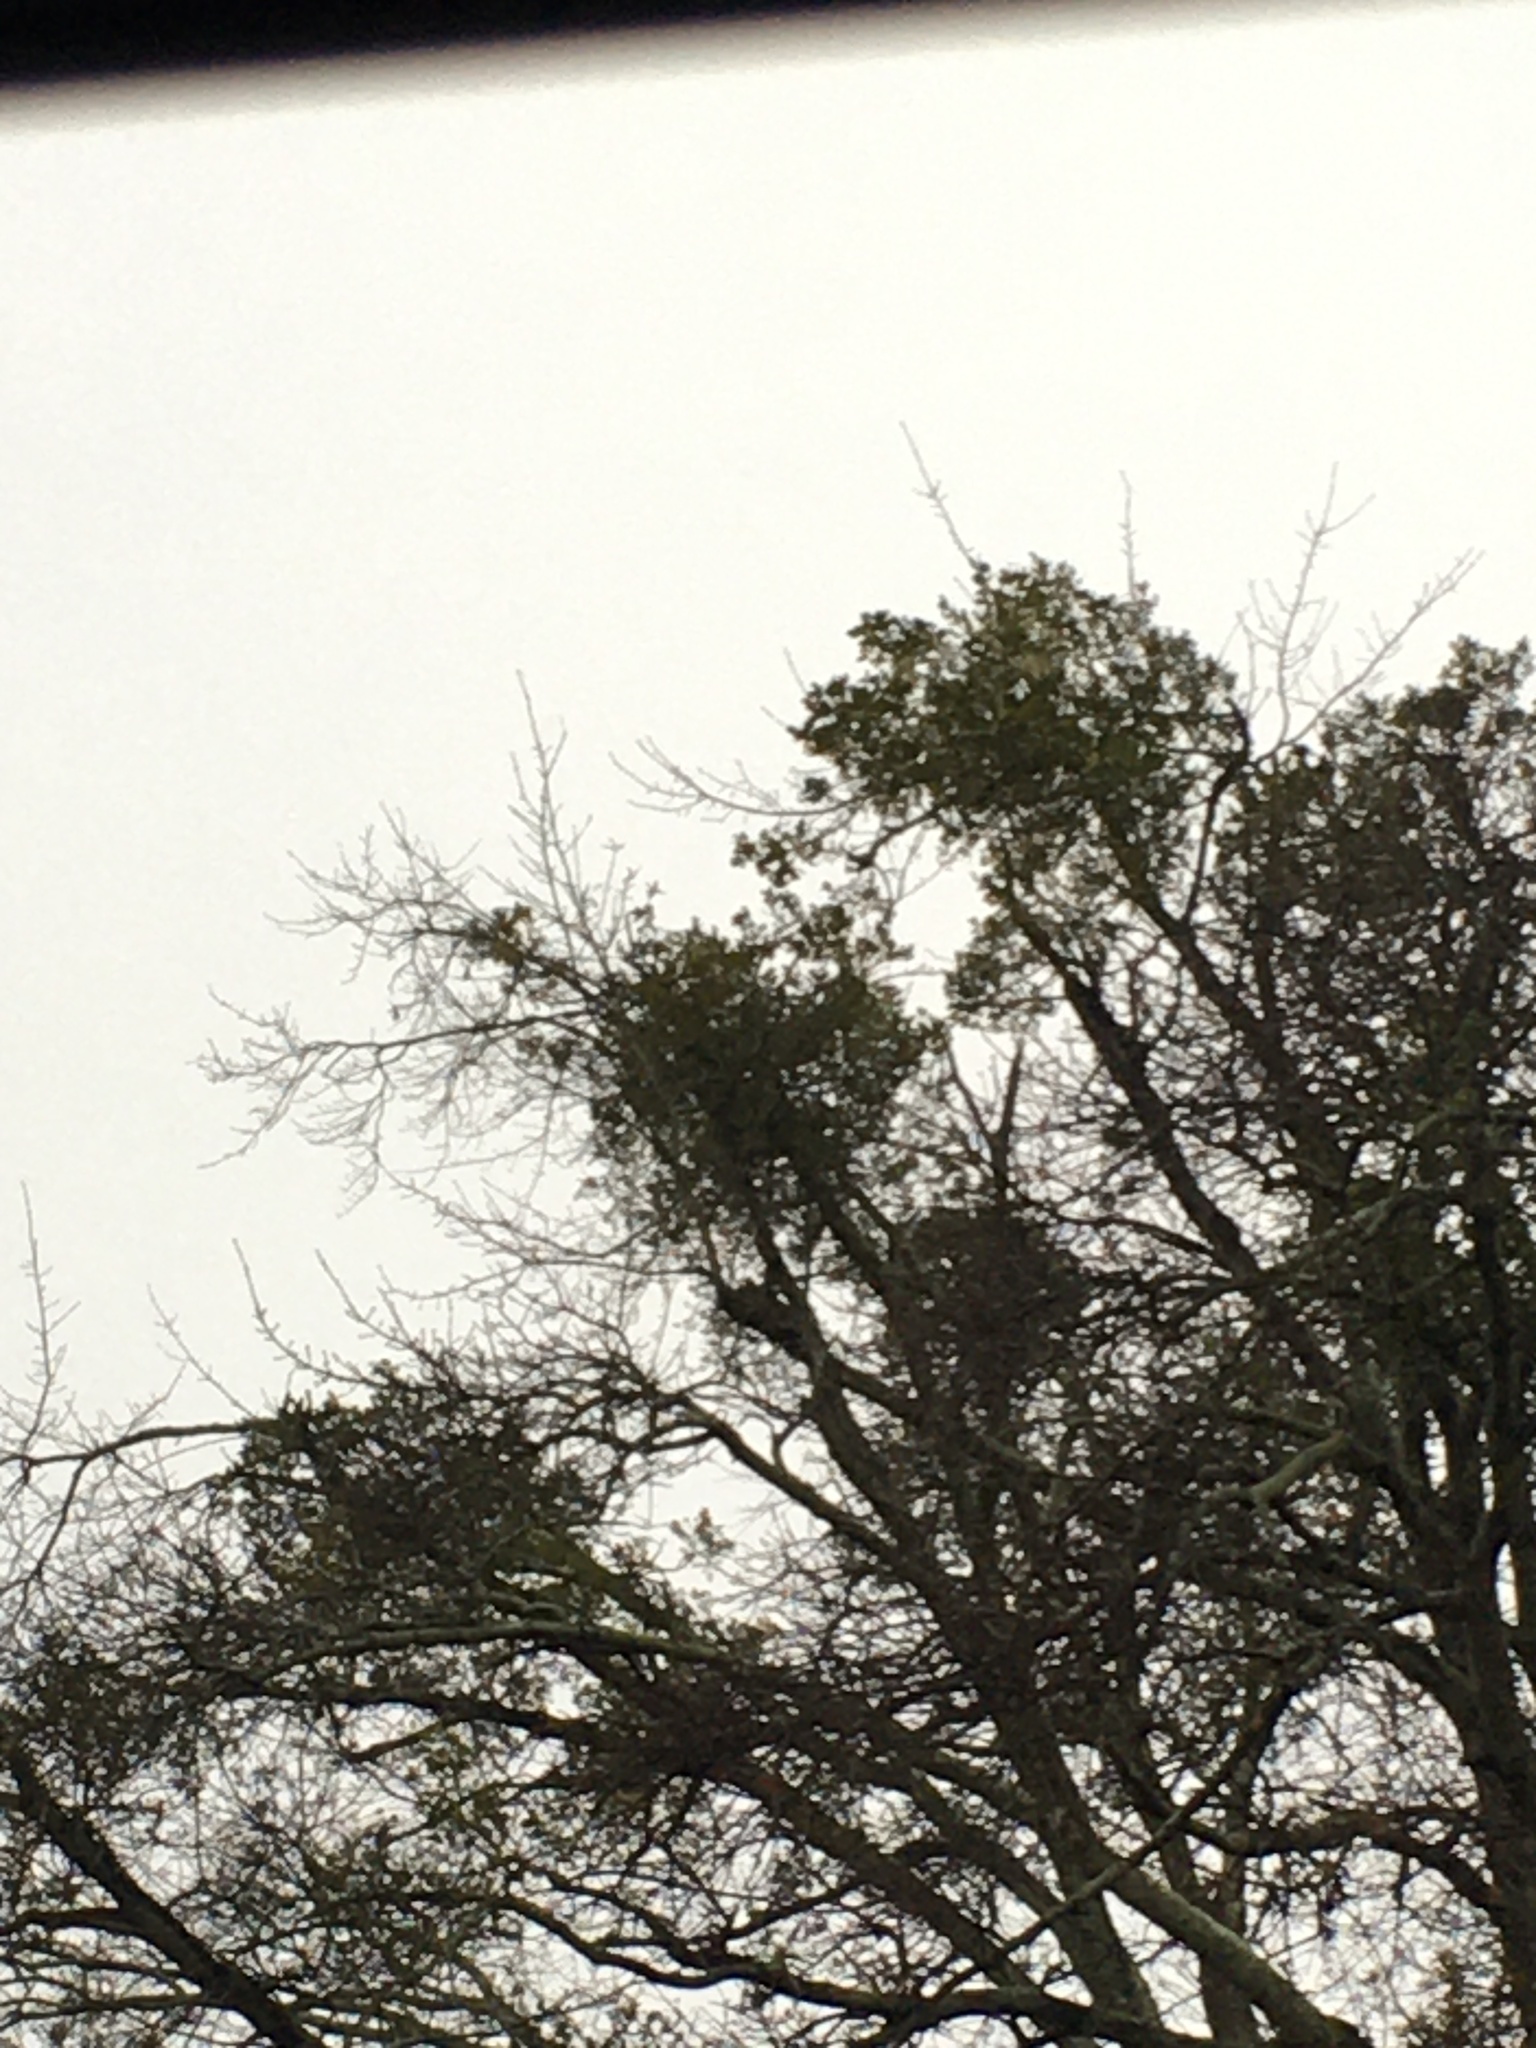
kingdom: Plantae
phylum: Tracheophyta
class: Magnoliopsida
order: Santalales
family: Viscaceae
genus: Phoradendron
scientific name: Phoradendron leucarpum
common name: Pacific mistletoe
